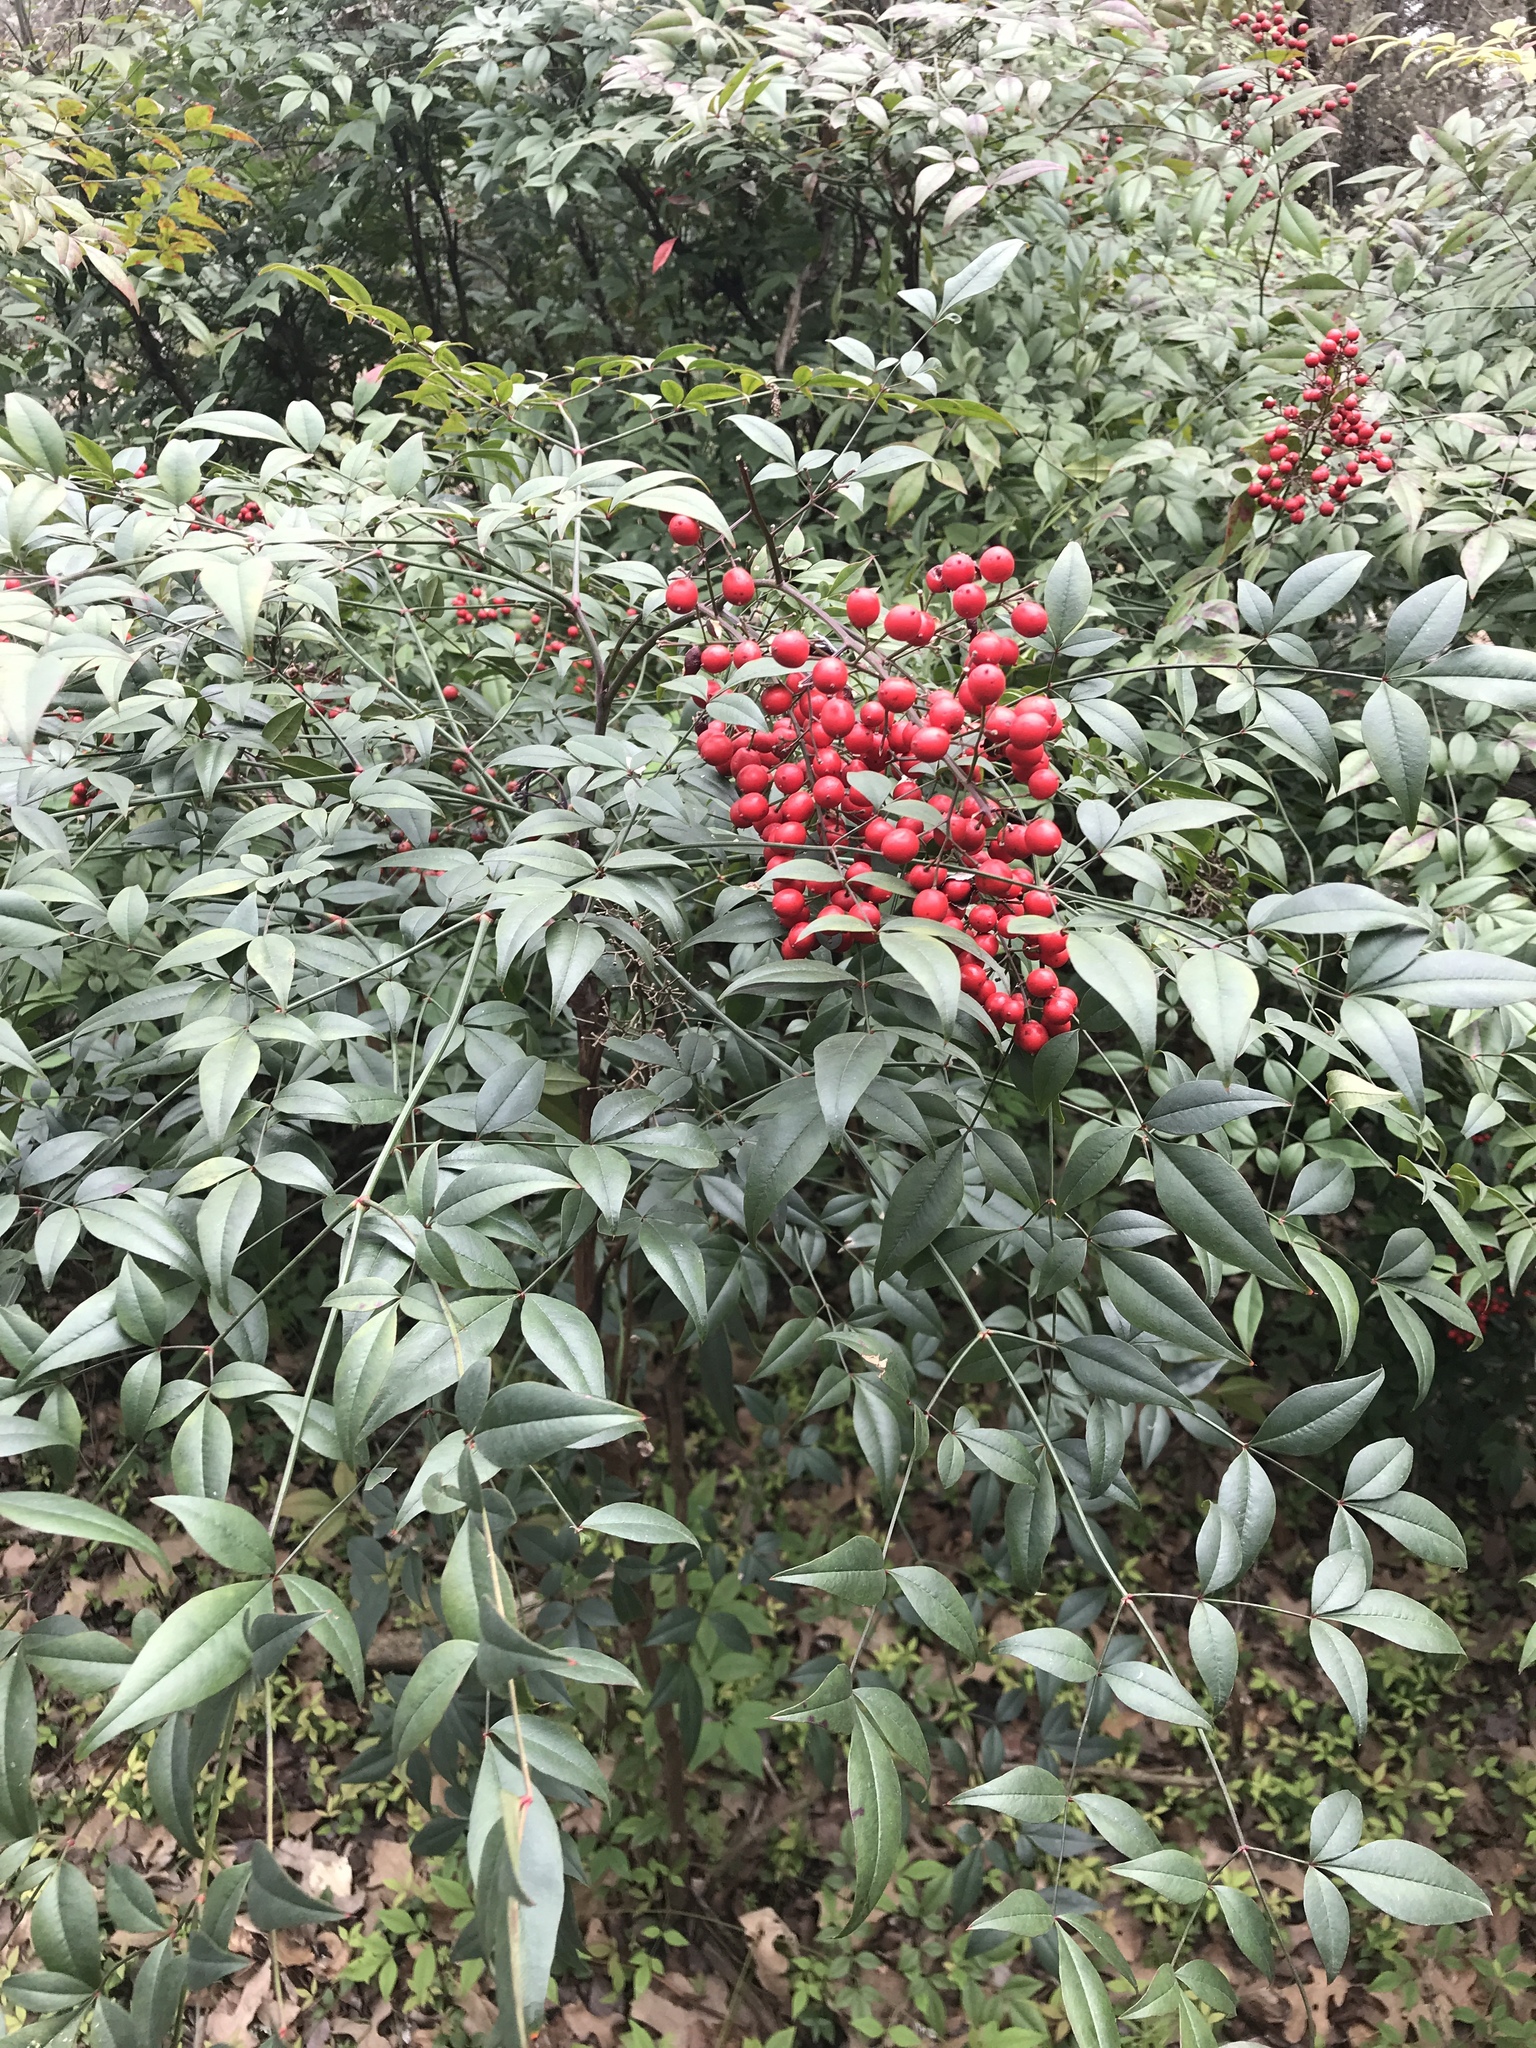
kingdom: Plantae
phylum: Tracheophyta
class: Magnoliopsida
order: Ranunculales
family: Berberidaceae
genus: Nandina
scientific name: Nandina domestica
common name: Sacred bamboo
